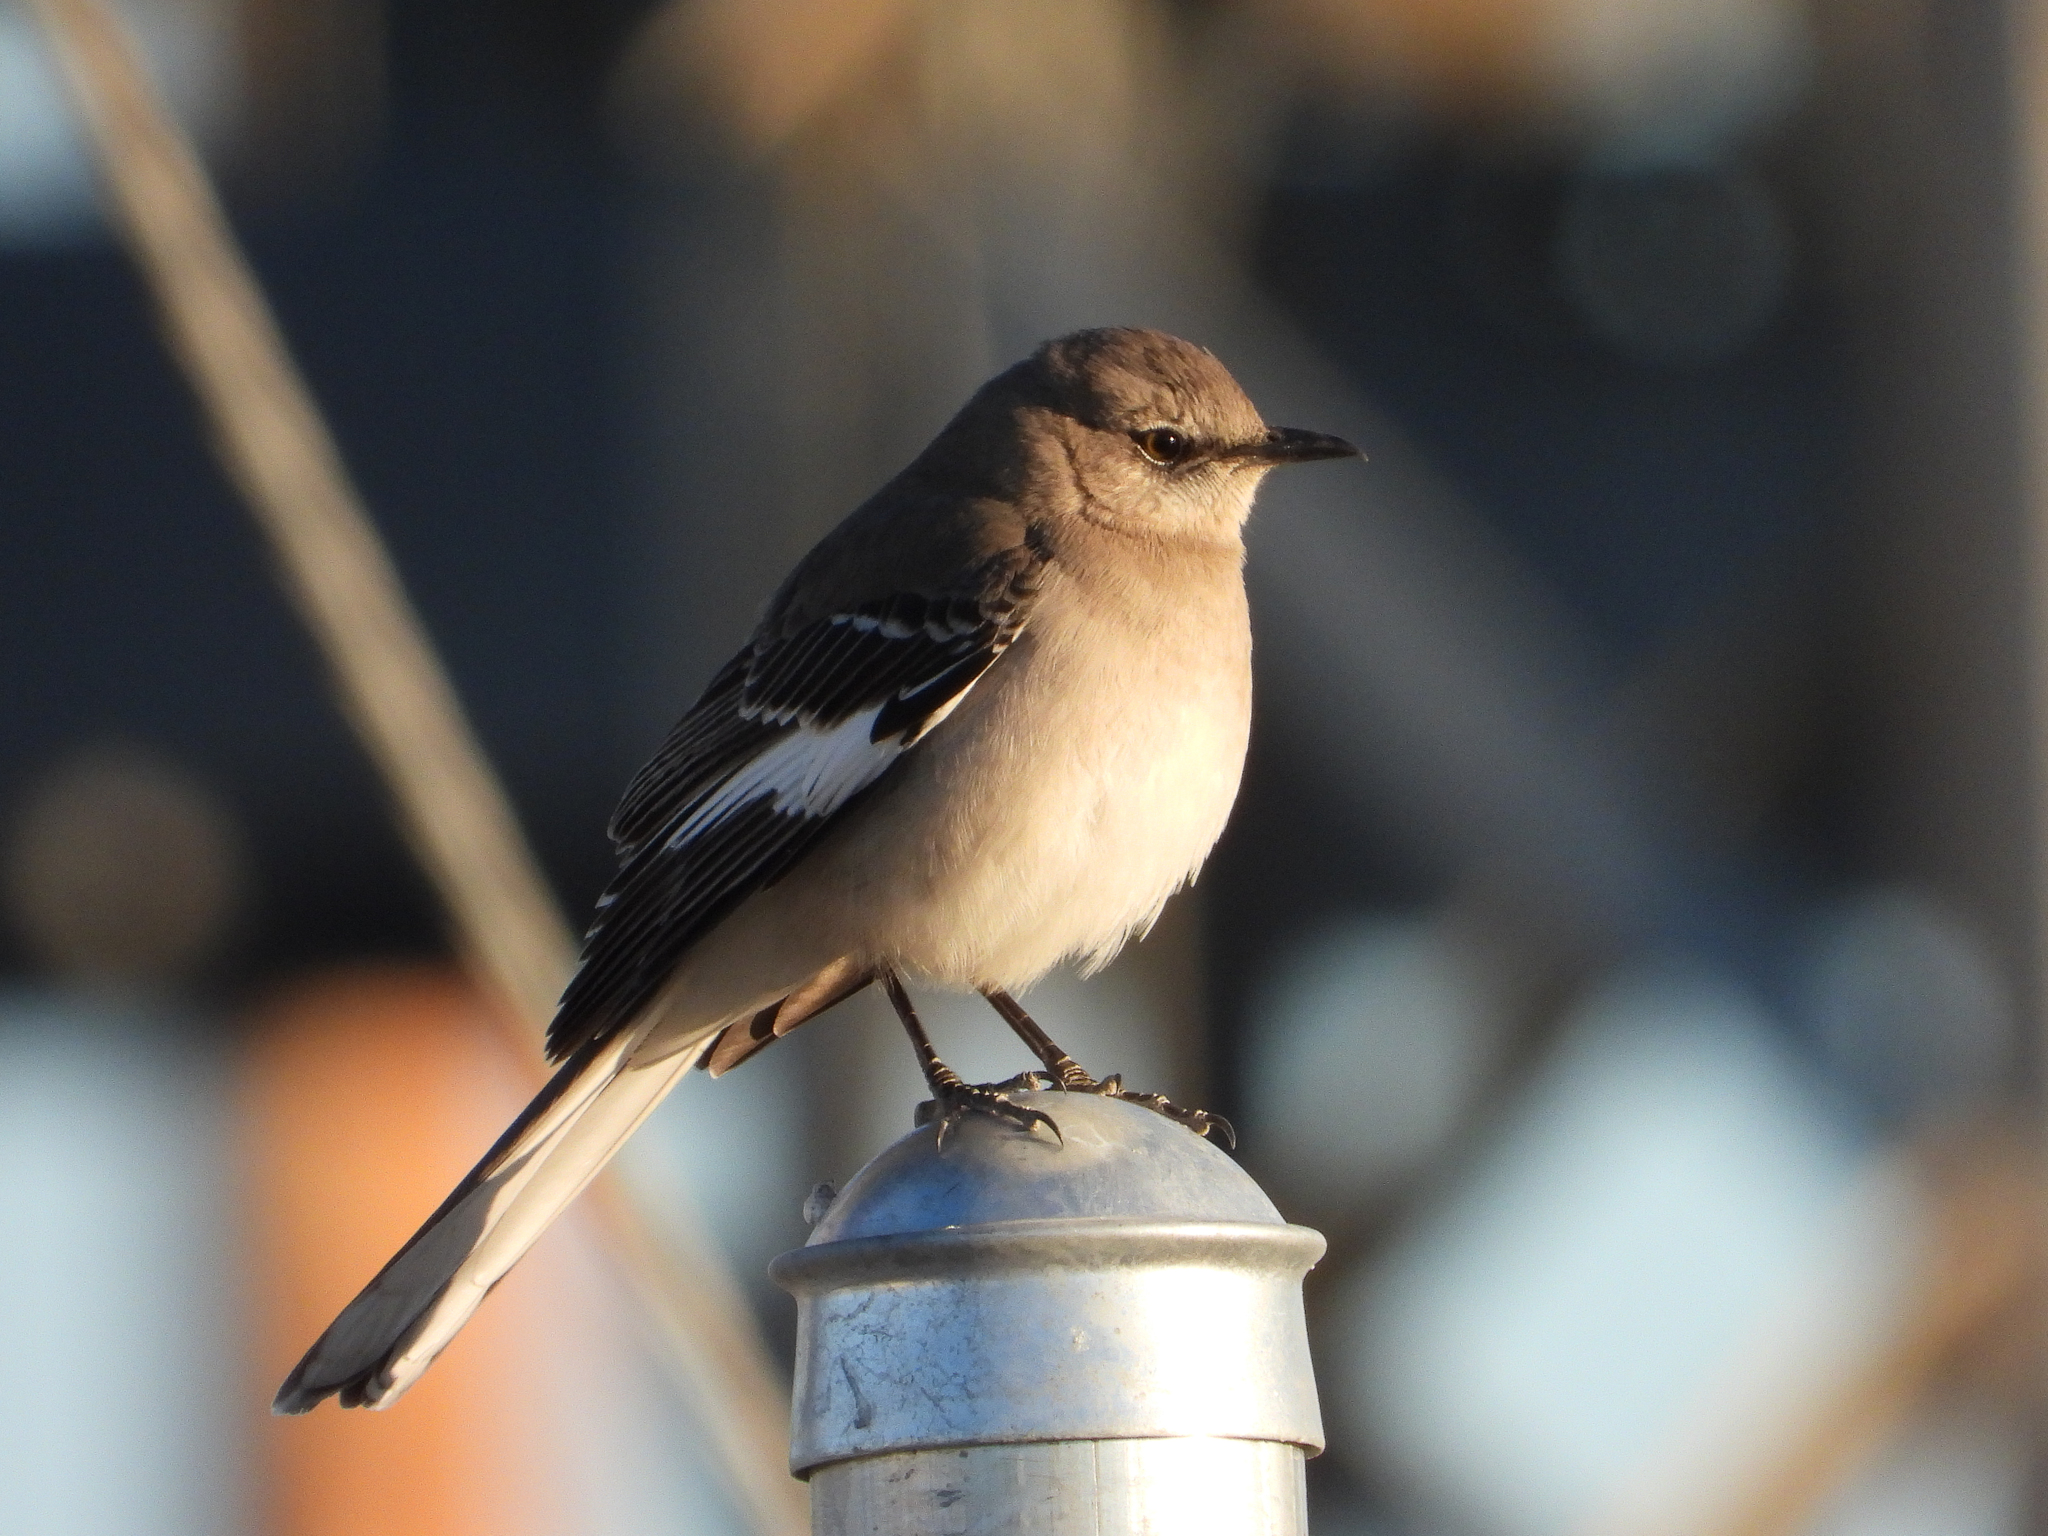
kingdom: Animalia
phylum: Chordata
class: Aves
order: Passeriformes
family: Mimidae
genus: Mimus
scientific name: Mimus polyglottos
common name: Northern mockingbird
